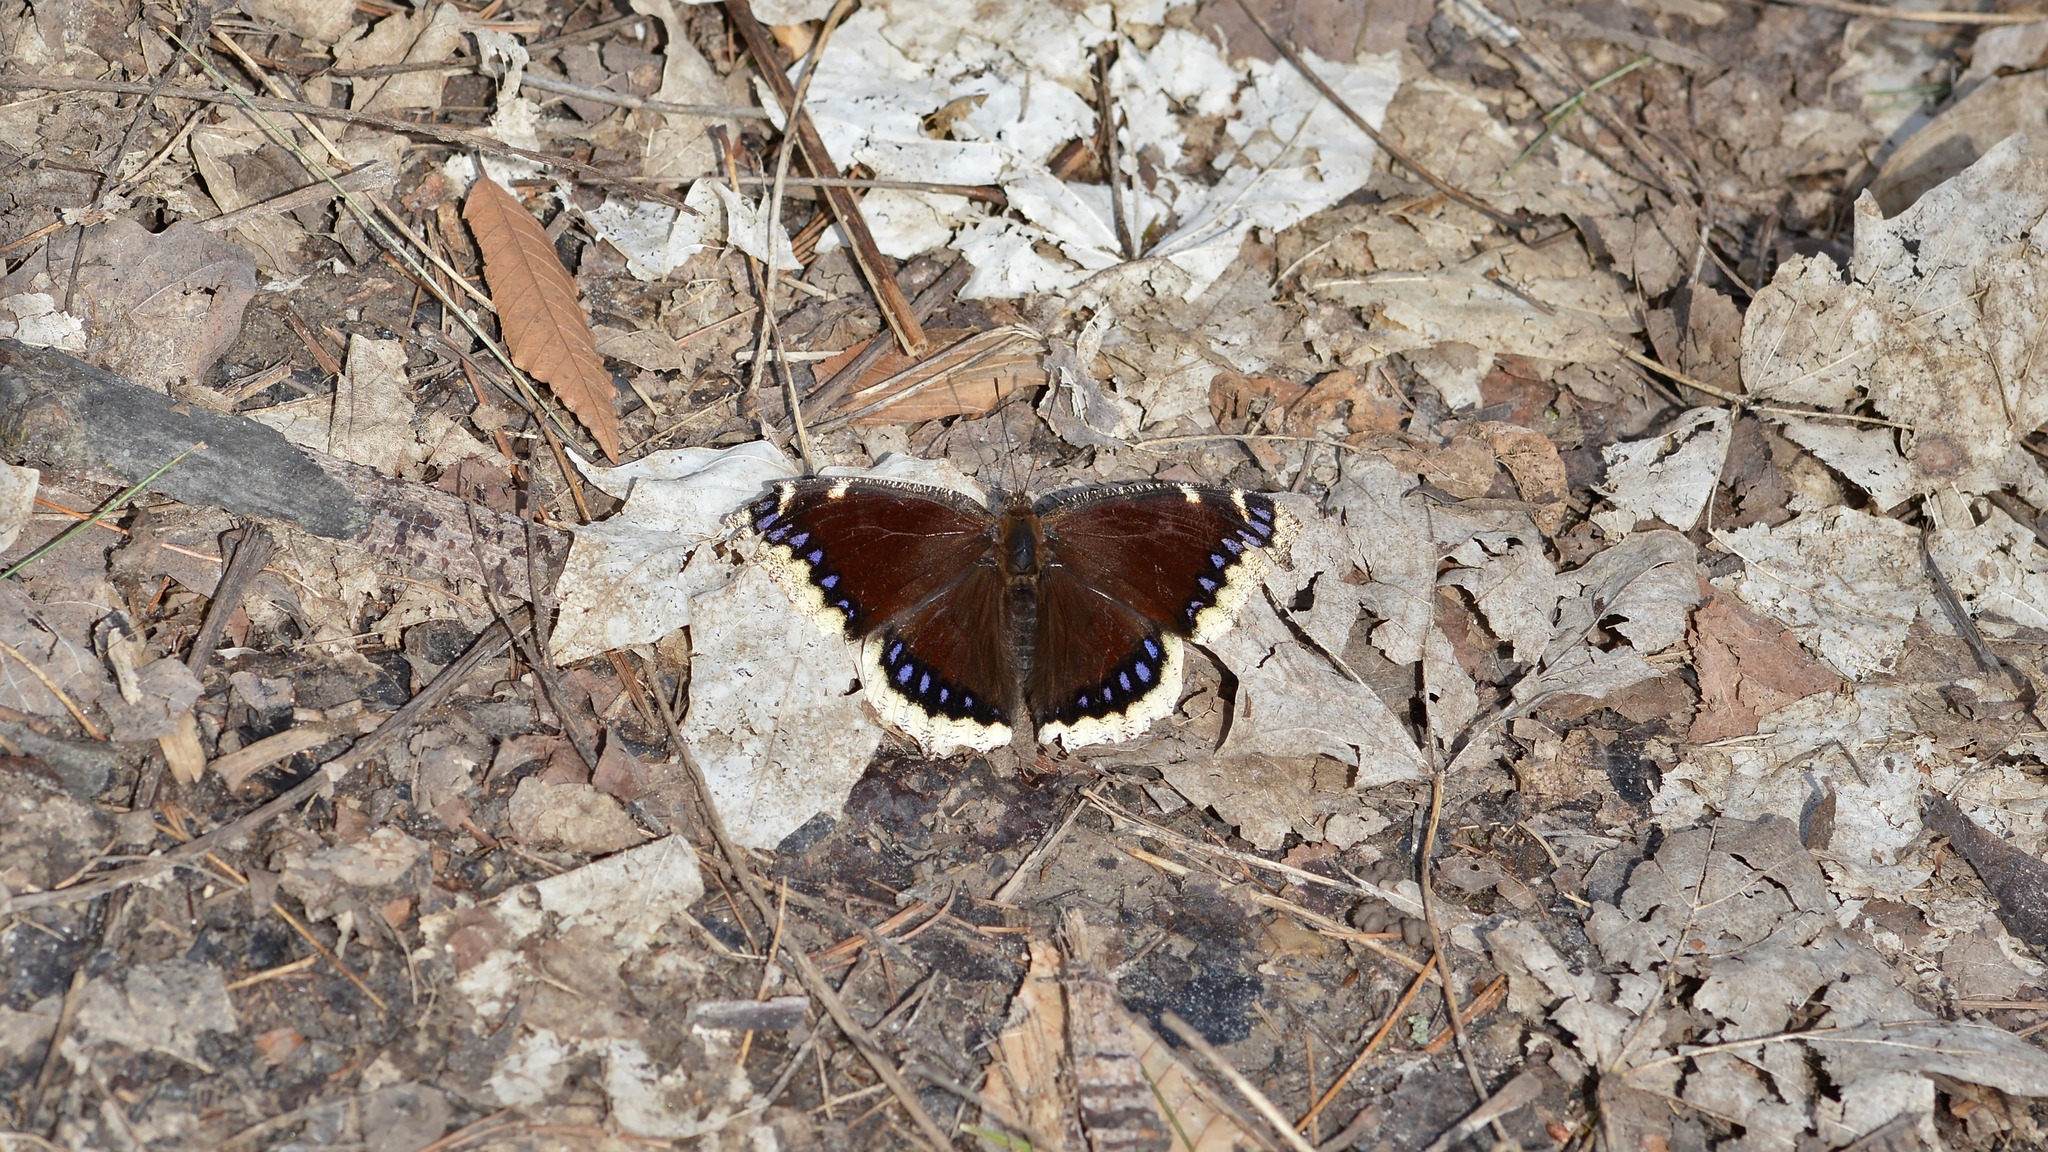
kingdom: Animalia
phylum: Arthropoda
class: Insecta
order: Lepidoptera
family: Nymphalidae
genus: Nymphalis
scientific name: Nymphalis antiopa
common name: Camberwell beauty
